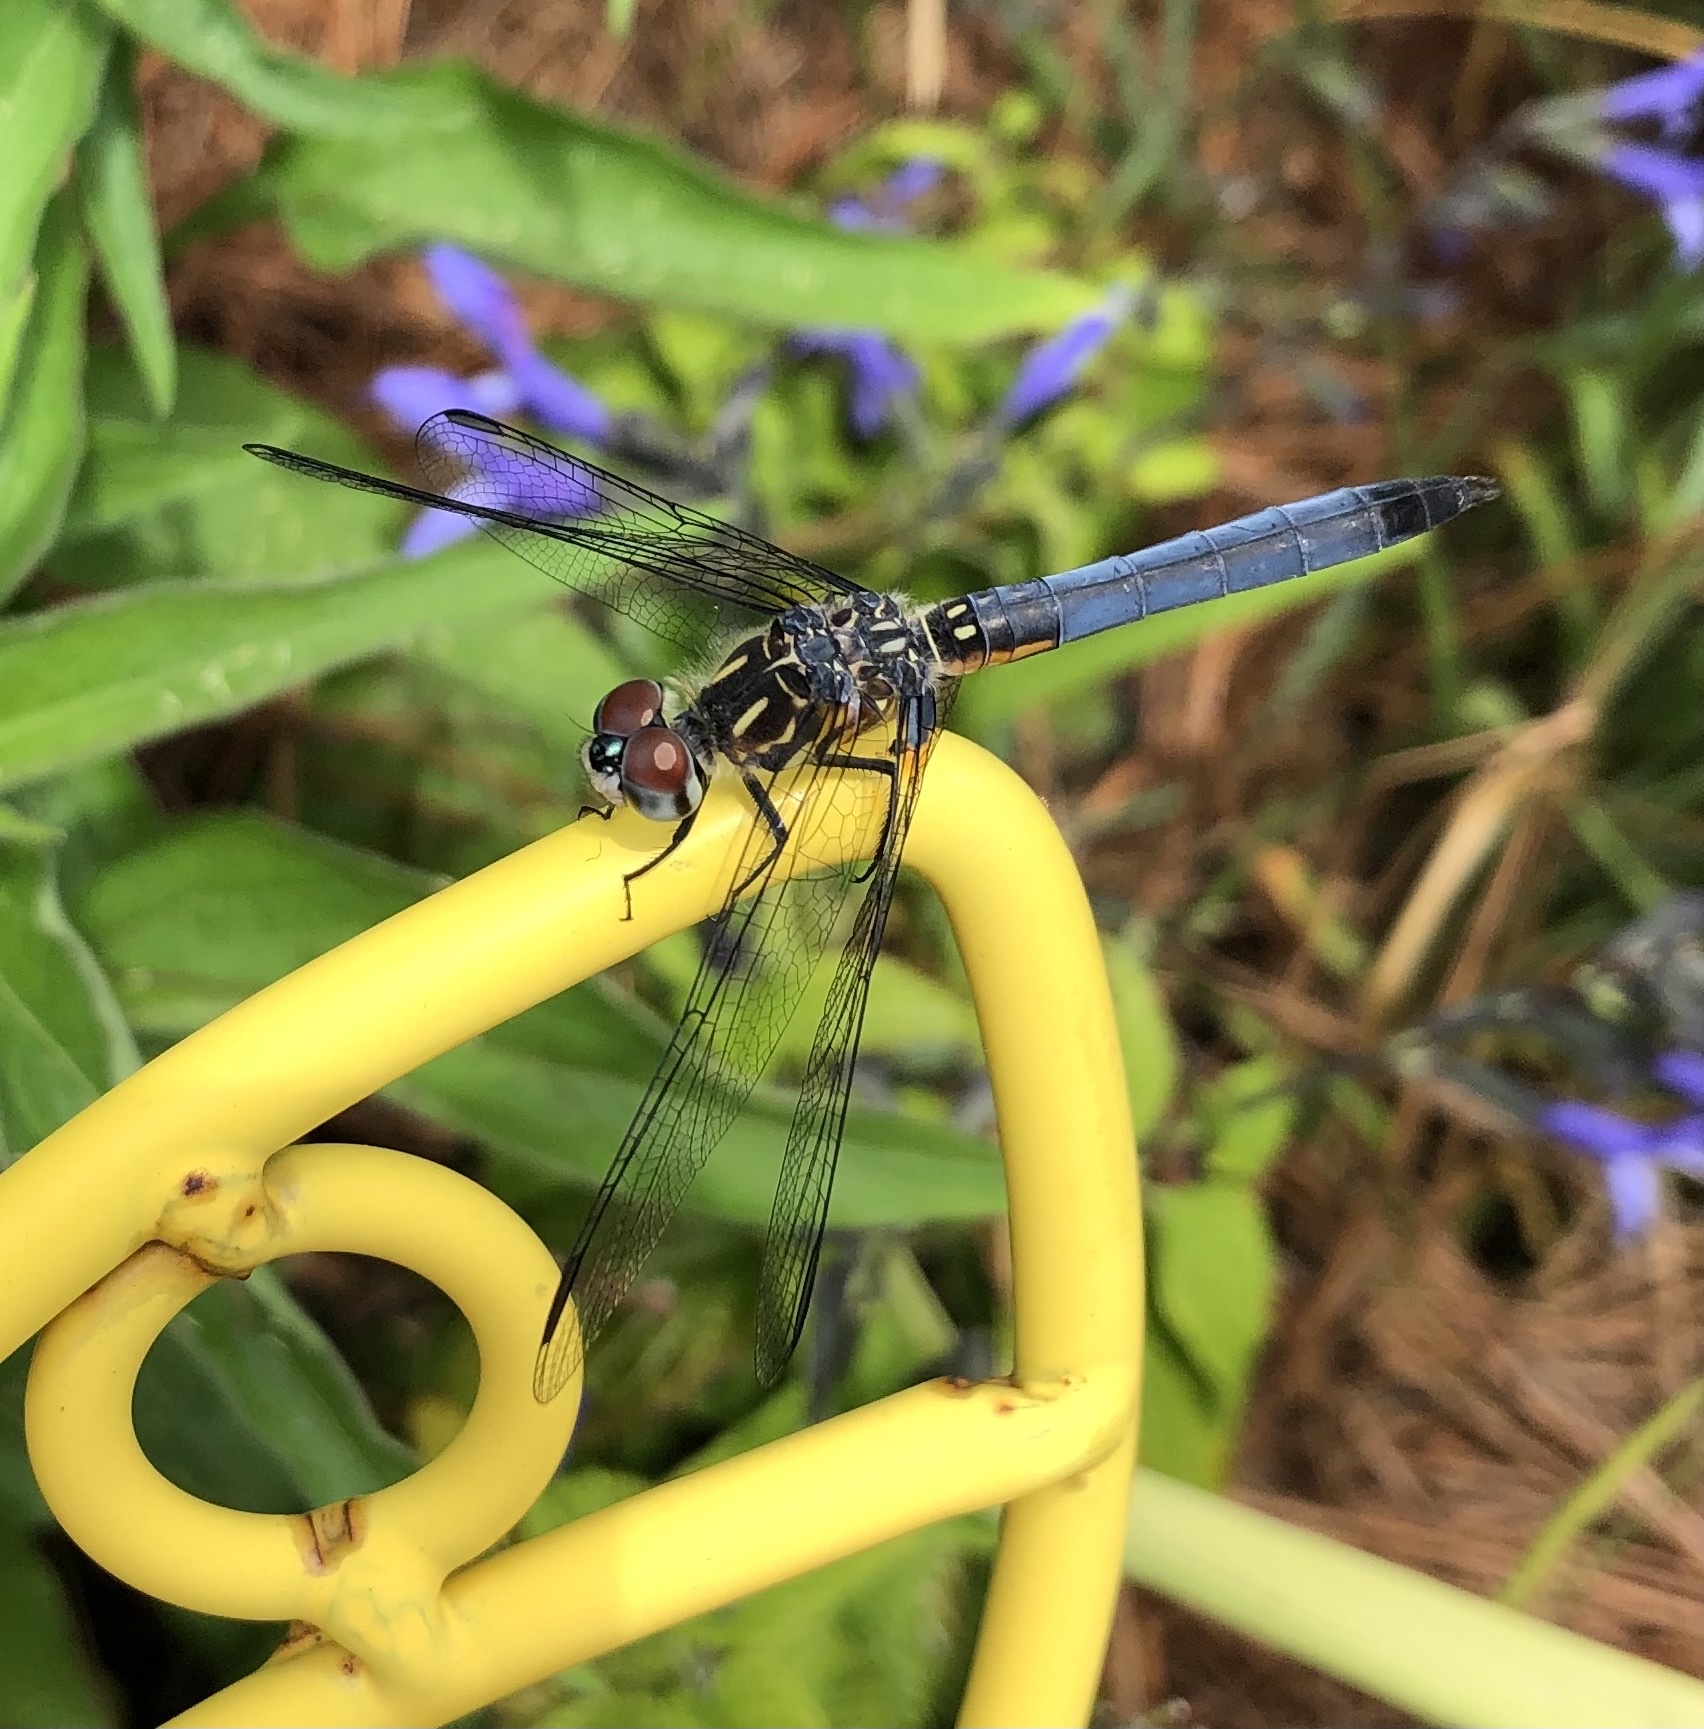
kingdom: Animalia
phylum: Arthropoda
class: Insecta
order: Odonata
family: Libellulidae
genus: Pachydiplax
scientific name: Pachydiplax longipennis
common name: Blue dasher
